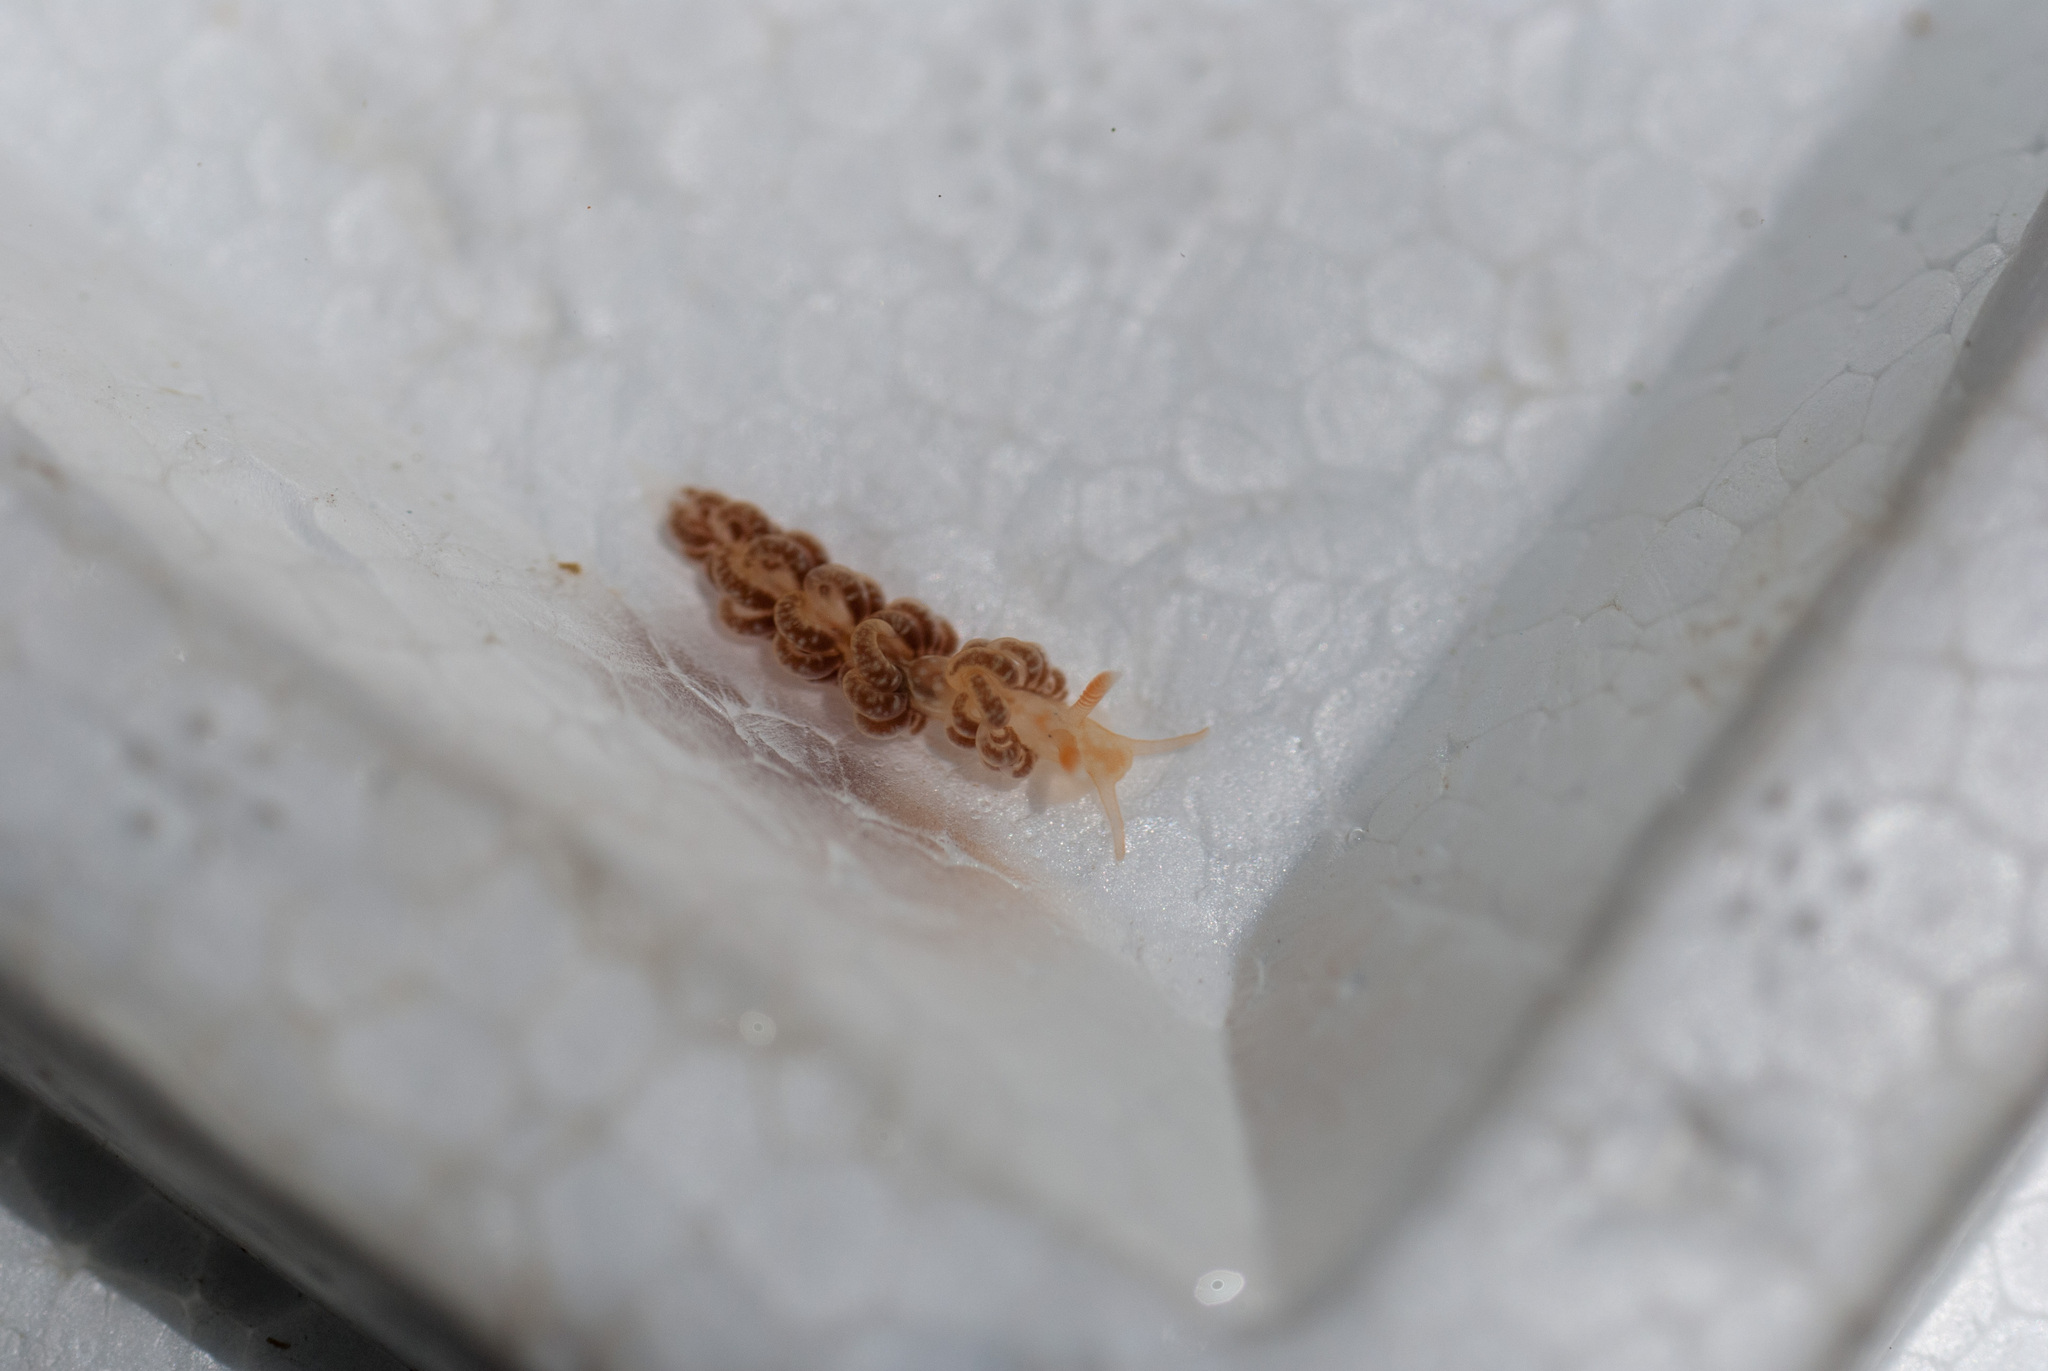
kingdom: Animalia
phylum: Mollusca
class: Gastropoda
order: Nudibranchia
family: Aeolidiidae
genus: Spurilla
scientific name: Spurilla neapolitana
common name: Naples spurilla
